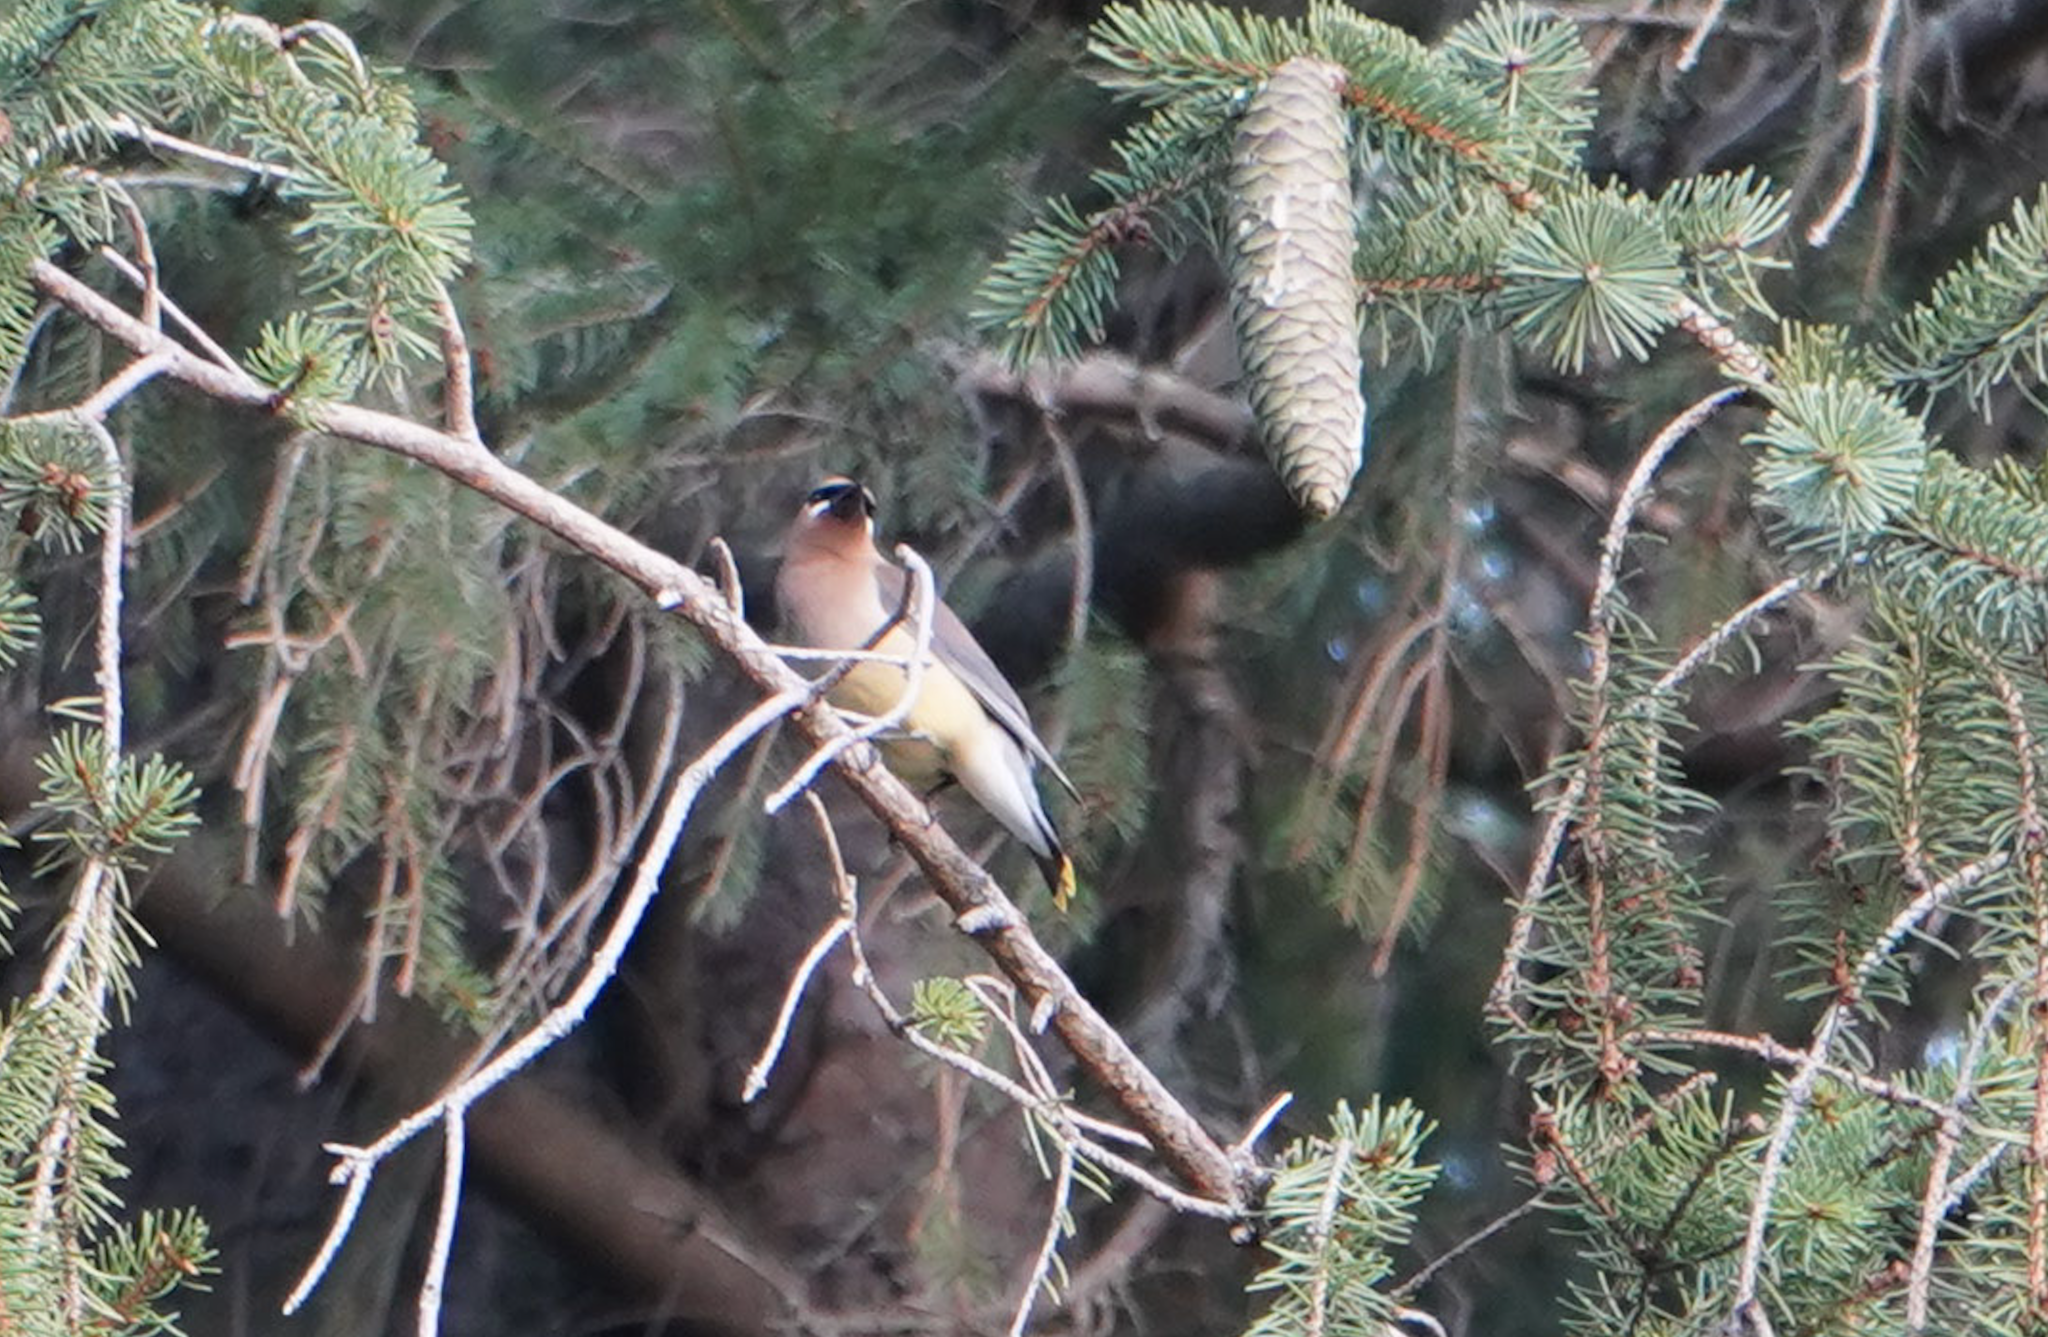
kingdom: Animalia
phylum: Chordata
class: Aves
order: Passeriformes
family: Bombycillidae
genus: Bombycilla
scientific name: Bombycilla cedrorum
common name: Cedar waxwing
